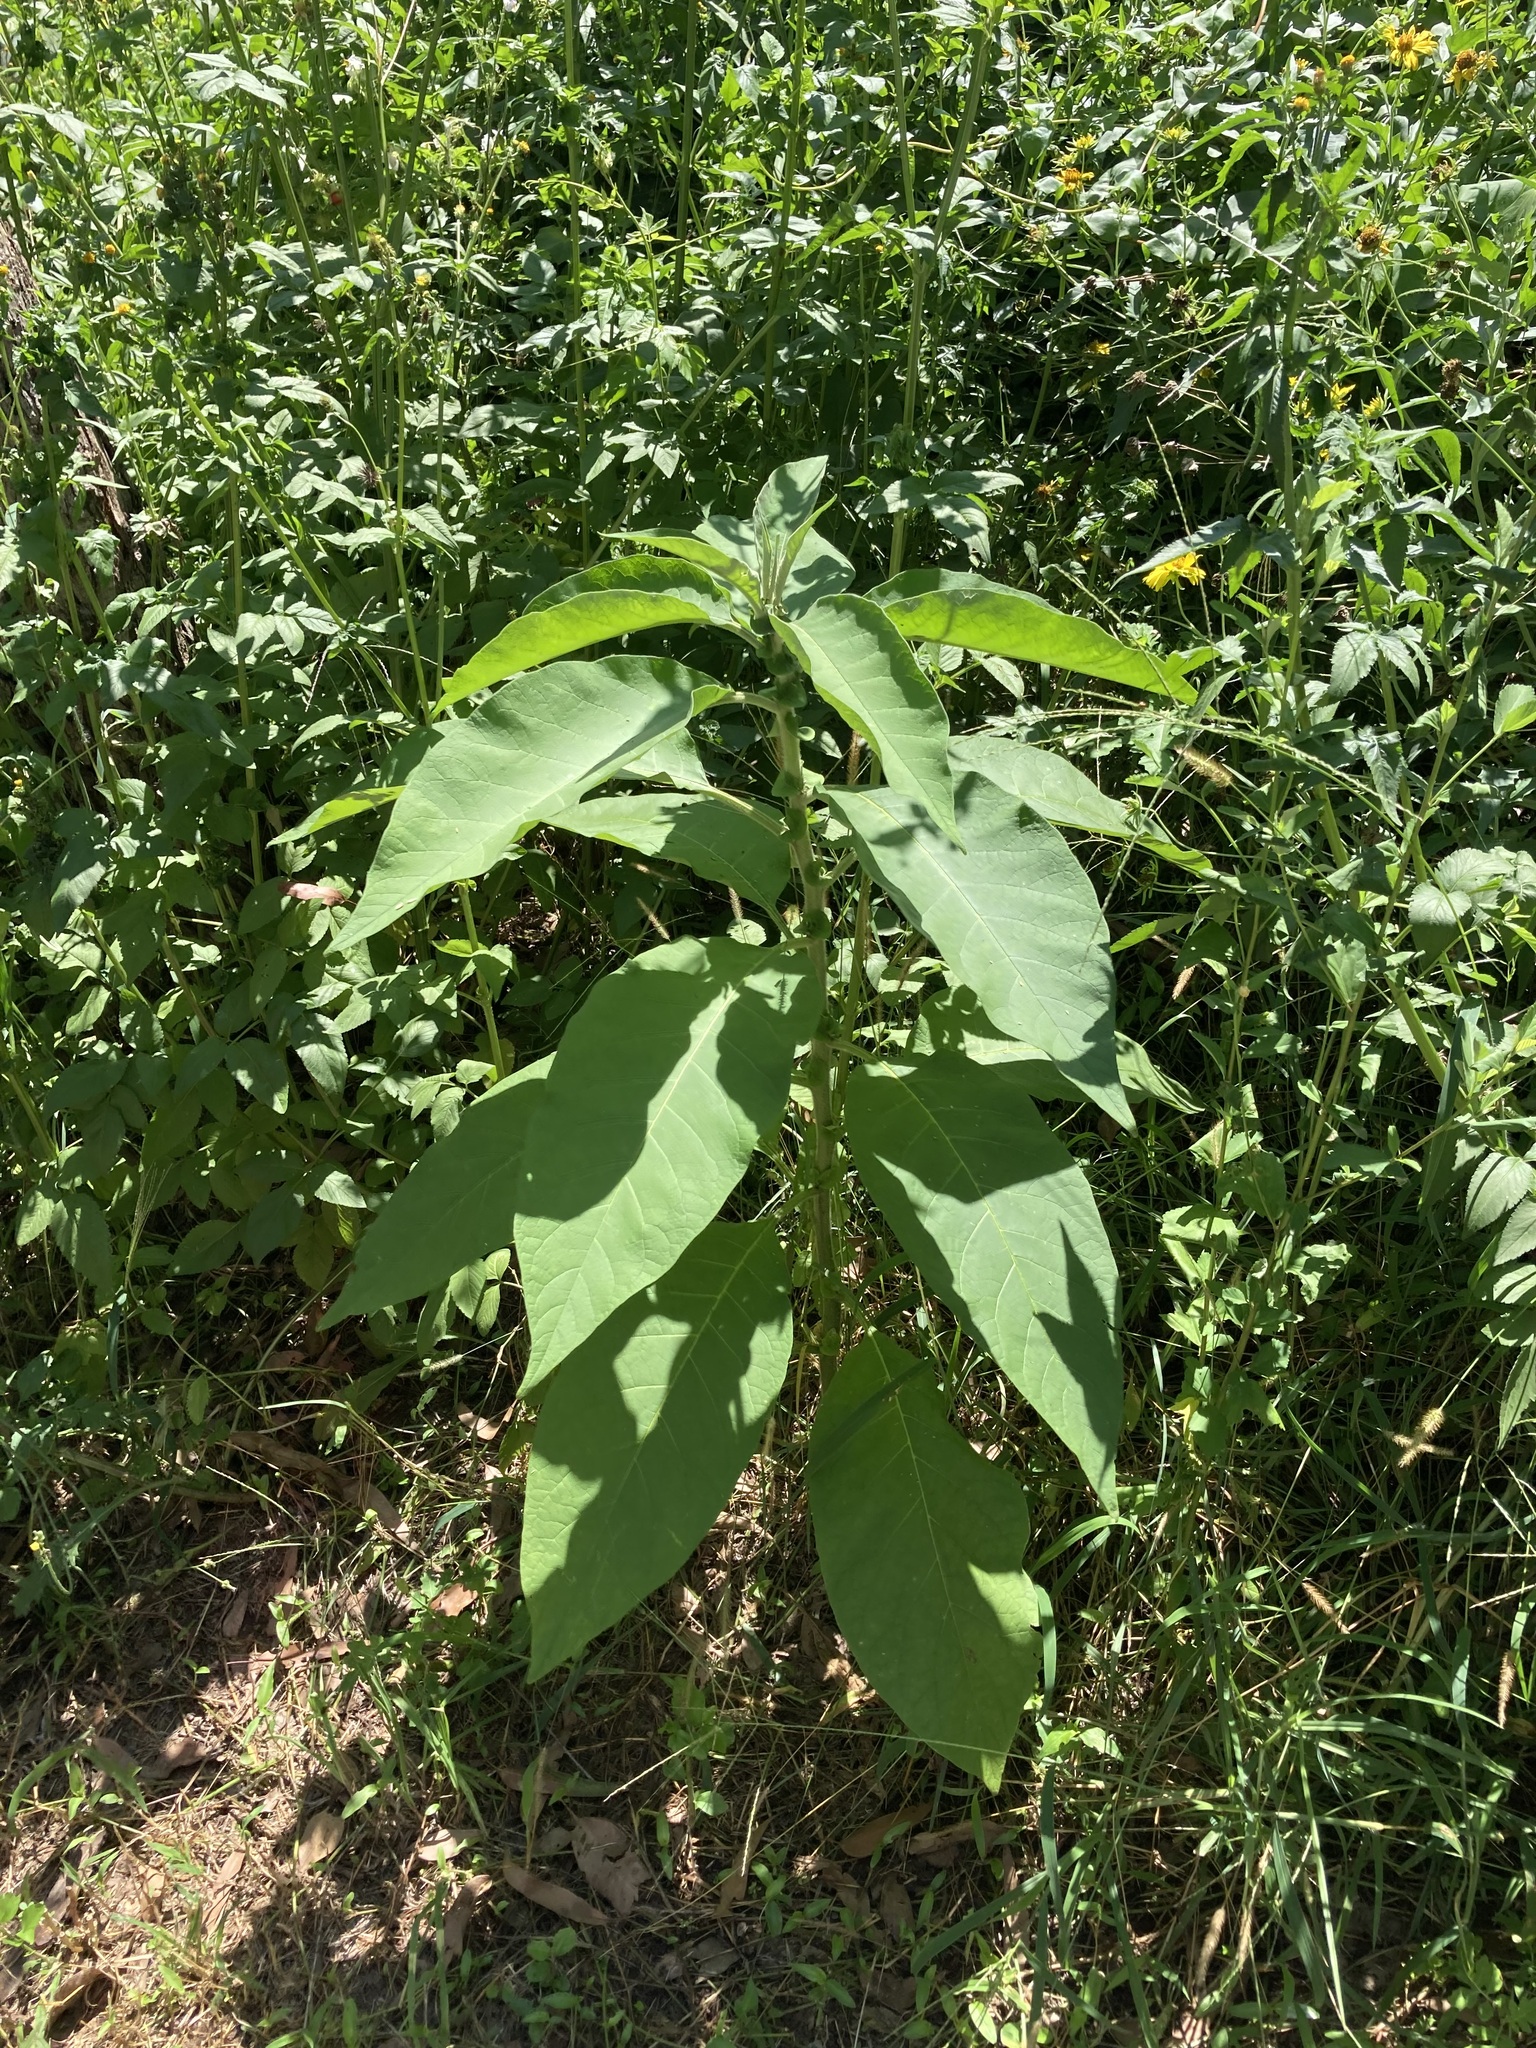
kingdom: Plantae
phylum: Tracheophyta
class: Magnoliopsida
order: Solanales
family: Solanaceae
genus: Solanum
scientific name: Solanum mauritianum
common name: Earleaf nightshade
